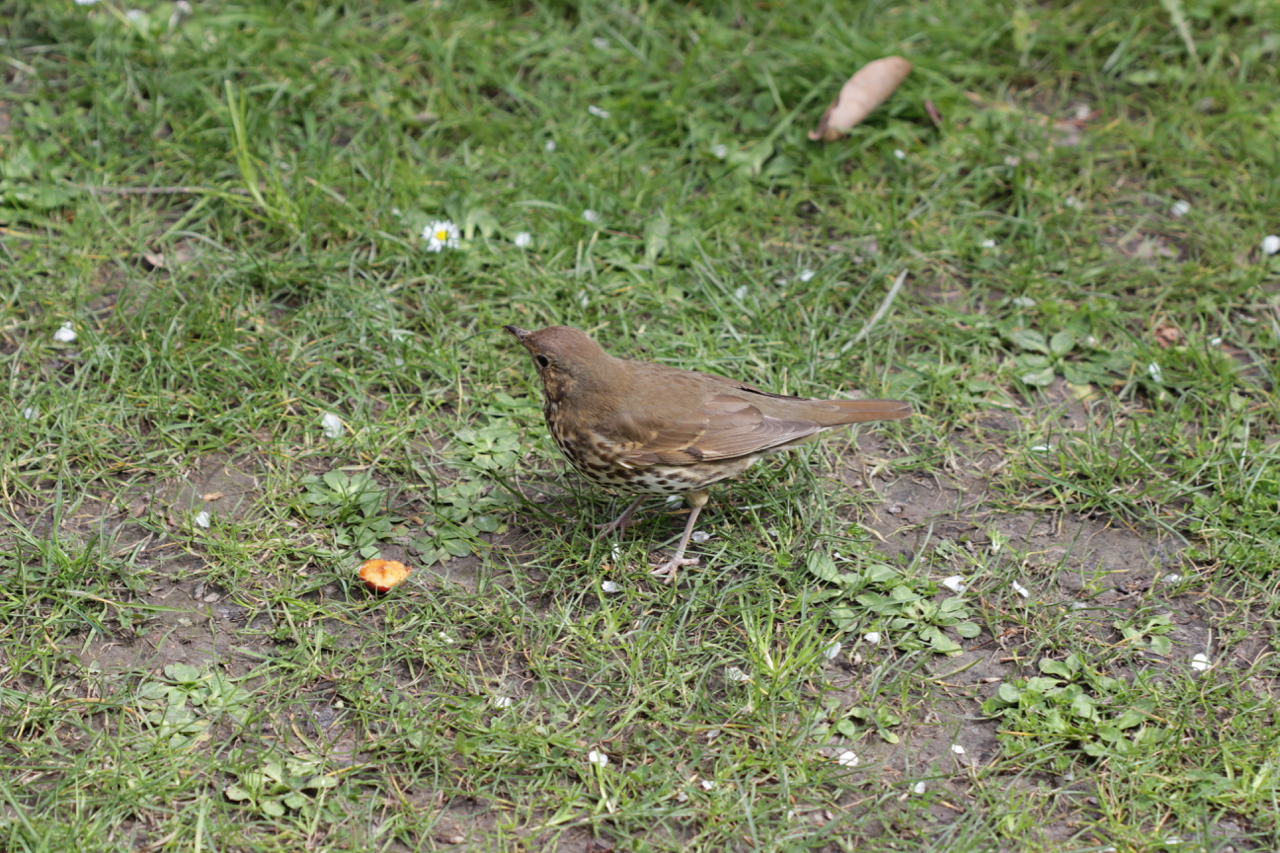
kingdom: Animalia
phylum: Chordata
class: Aves
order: Passeriformes
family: Turdidae
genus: Turdus
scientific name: Turdus philomelos
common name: Song thrush
